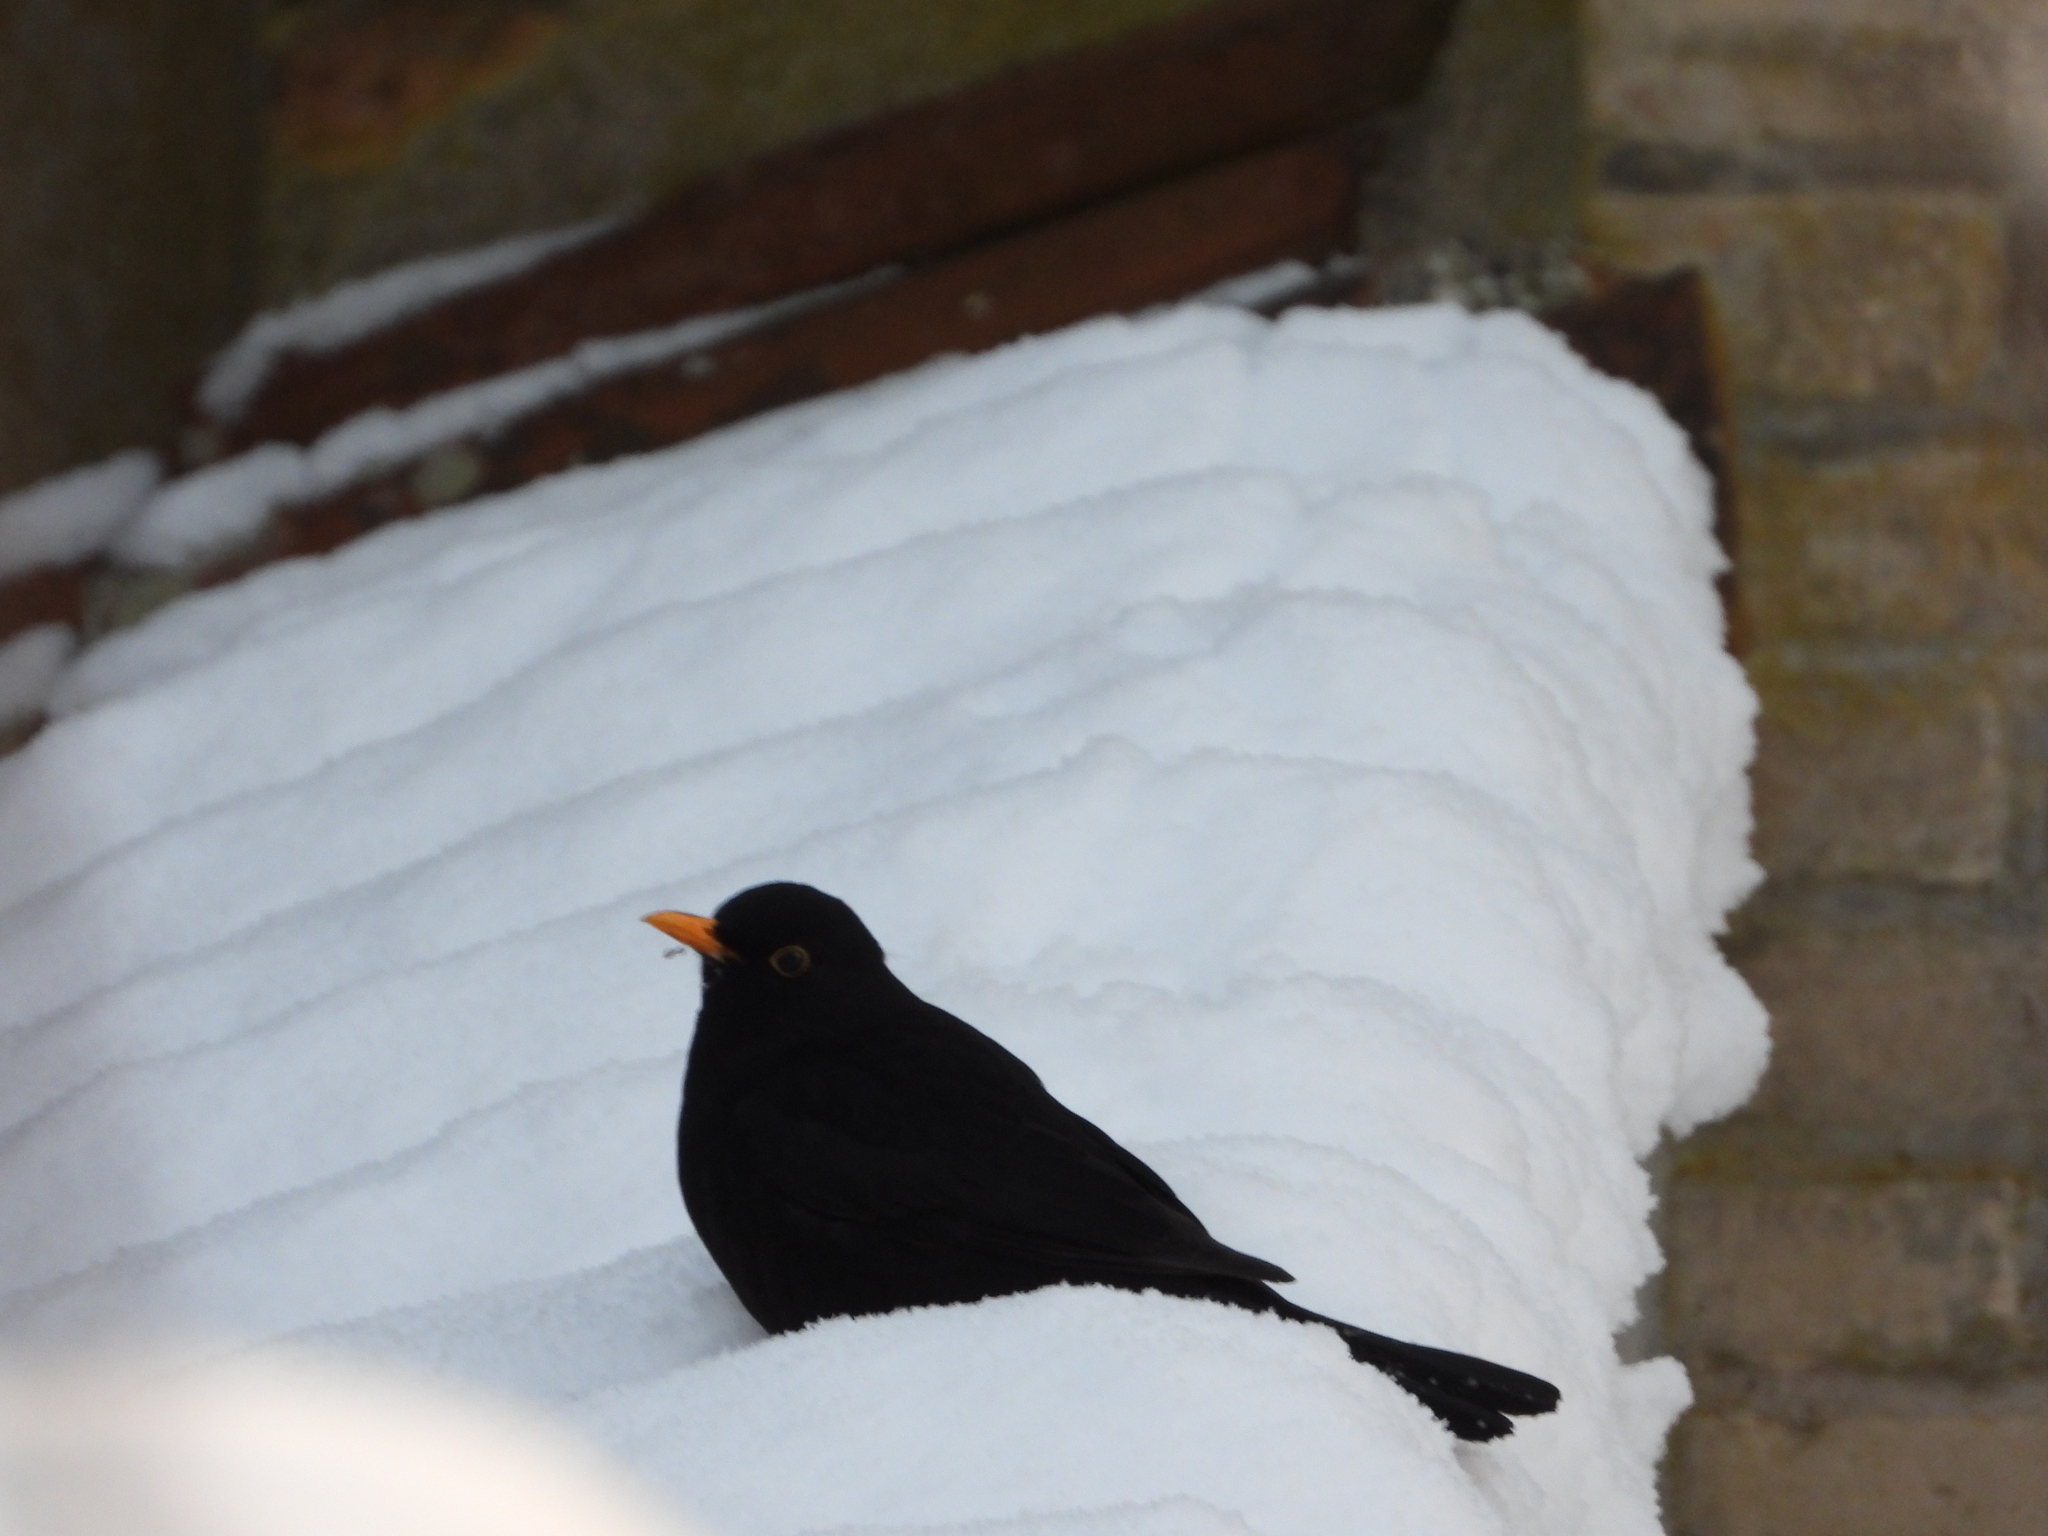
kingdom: Animalia
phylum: Chordata
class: Aves
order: Passeriformes
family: Turdidae
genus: Turdus
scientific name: Turdus merula
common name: Common blackbird
